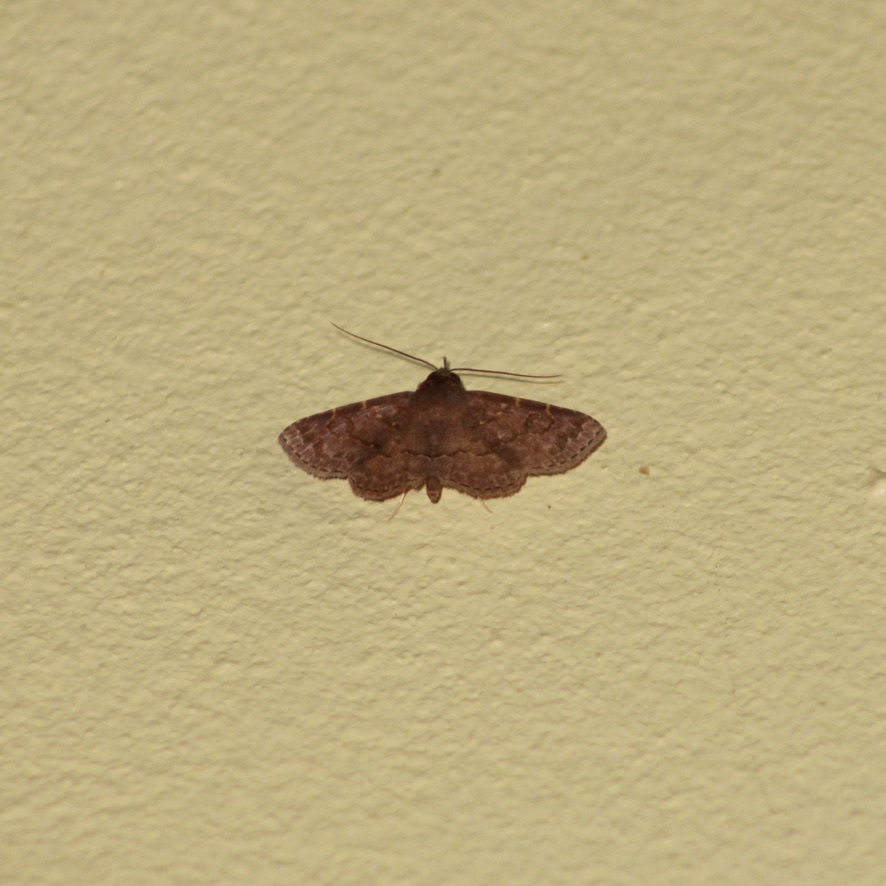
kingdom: Animalia
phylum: Arthropoda
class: Insecta
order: Lepidoptera
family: Erebidae
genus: Antiblemma
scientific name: Antiblemma mundicola
